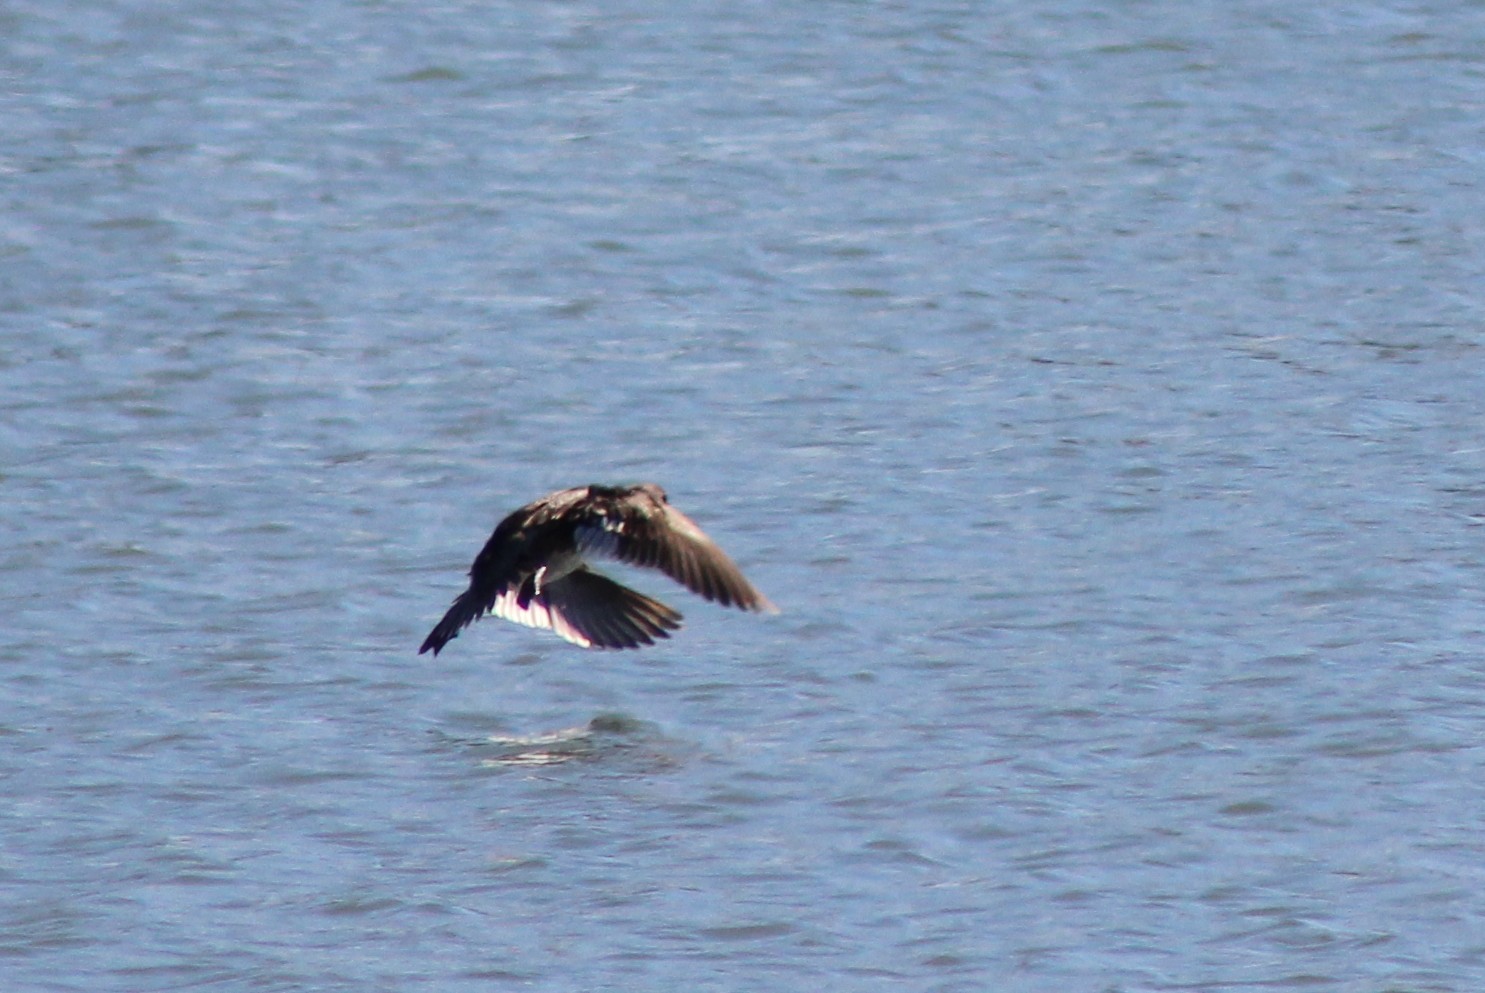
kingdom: Animalia
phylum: Chordata
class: Aves
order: Anseriformes
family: Anatidae
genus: Bucephala
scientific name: Bucephala albeola
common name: Bufflehead
